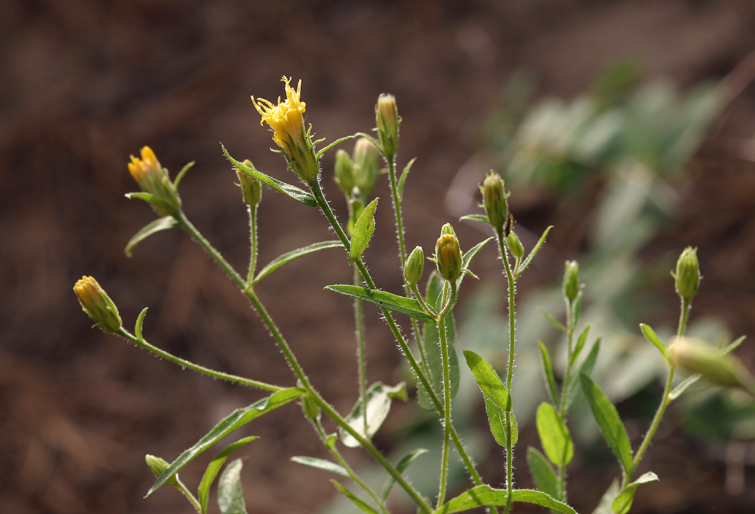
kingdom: Plantae
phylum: Tracheophyta
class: Magnoliopsida
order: Asterales
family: Asteraceae
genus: Eucephalus
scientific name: Eucephalus breweri
